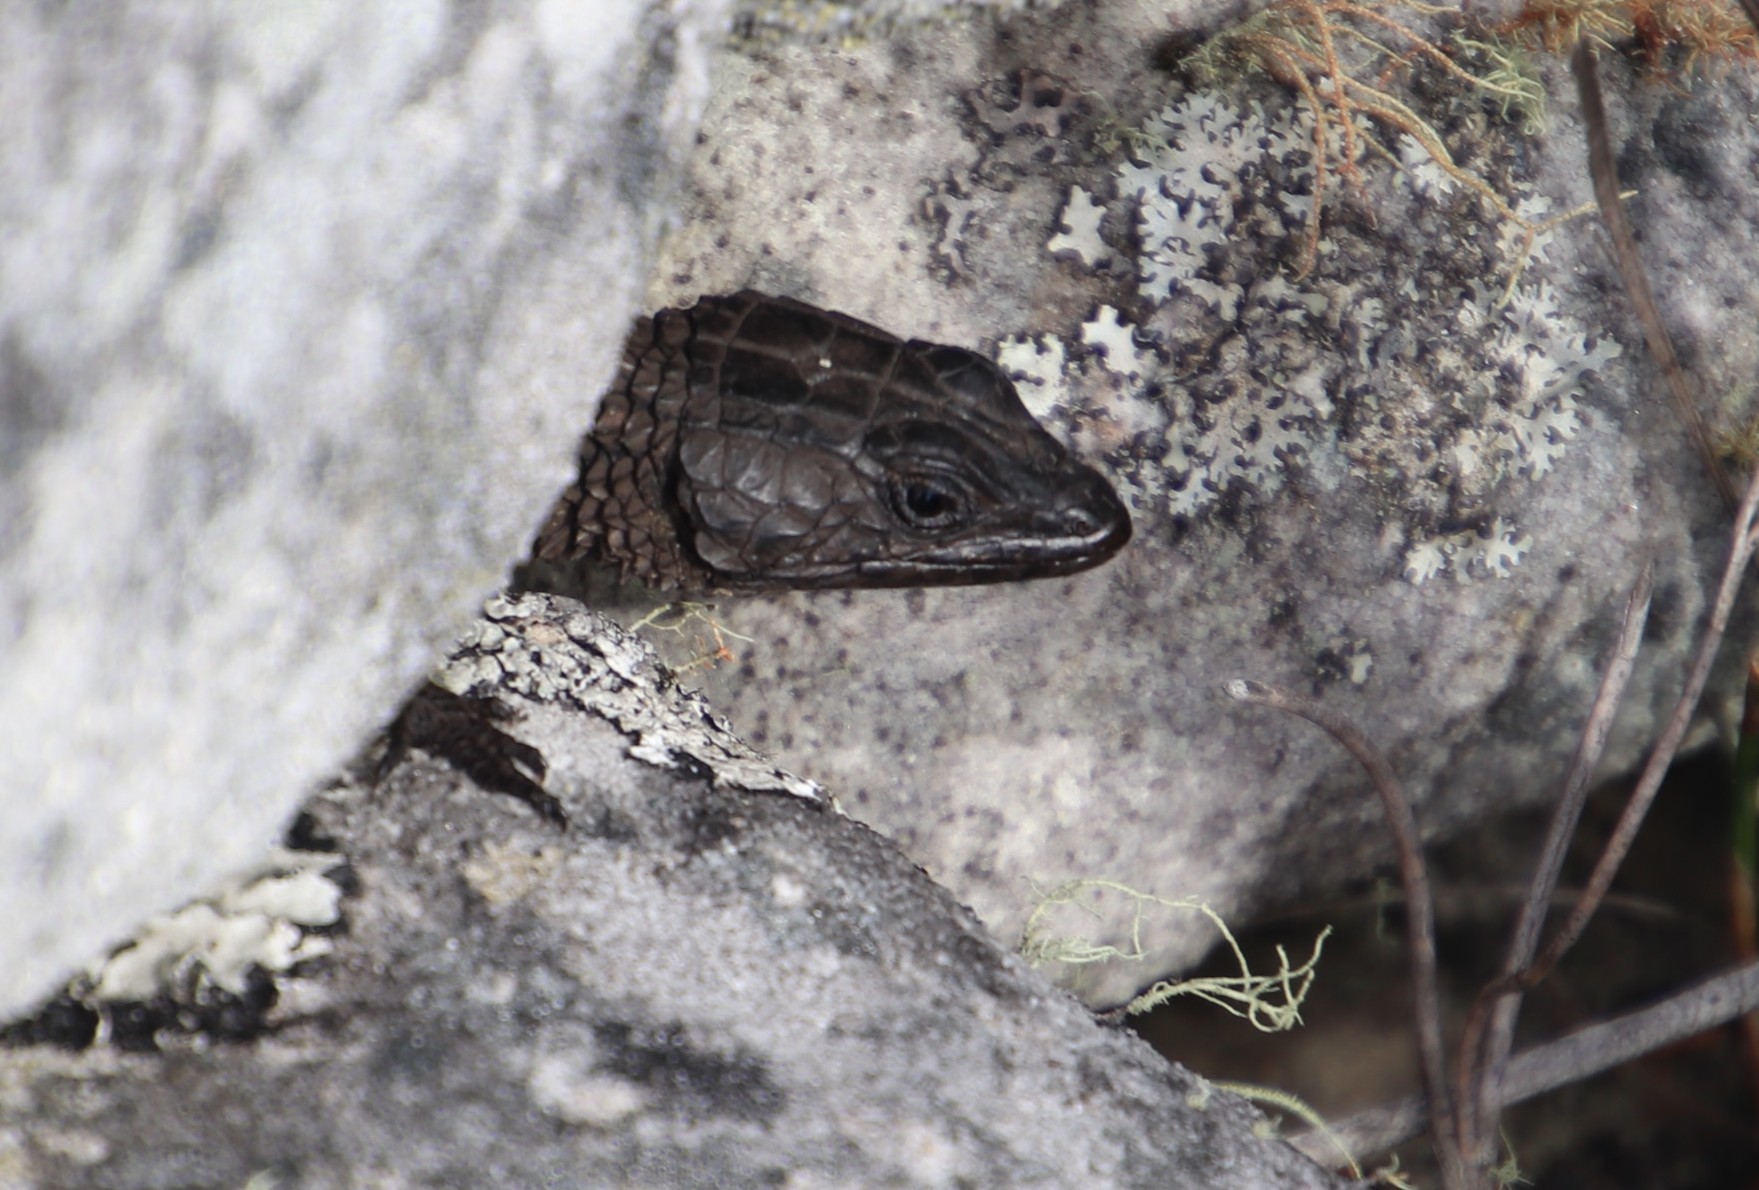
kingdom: Animalia
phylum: Chordata
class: Squamata
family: Cordylidae
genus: Cordylus
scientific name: Cordylus niger
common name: Black girdled lizard
